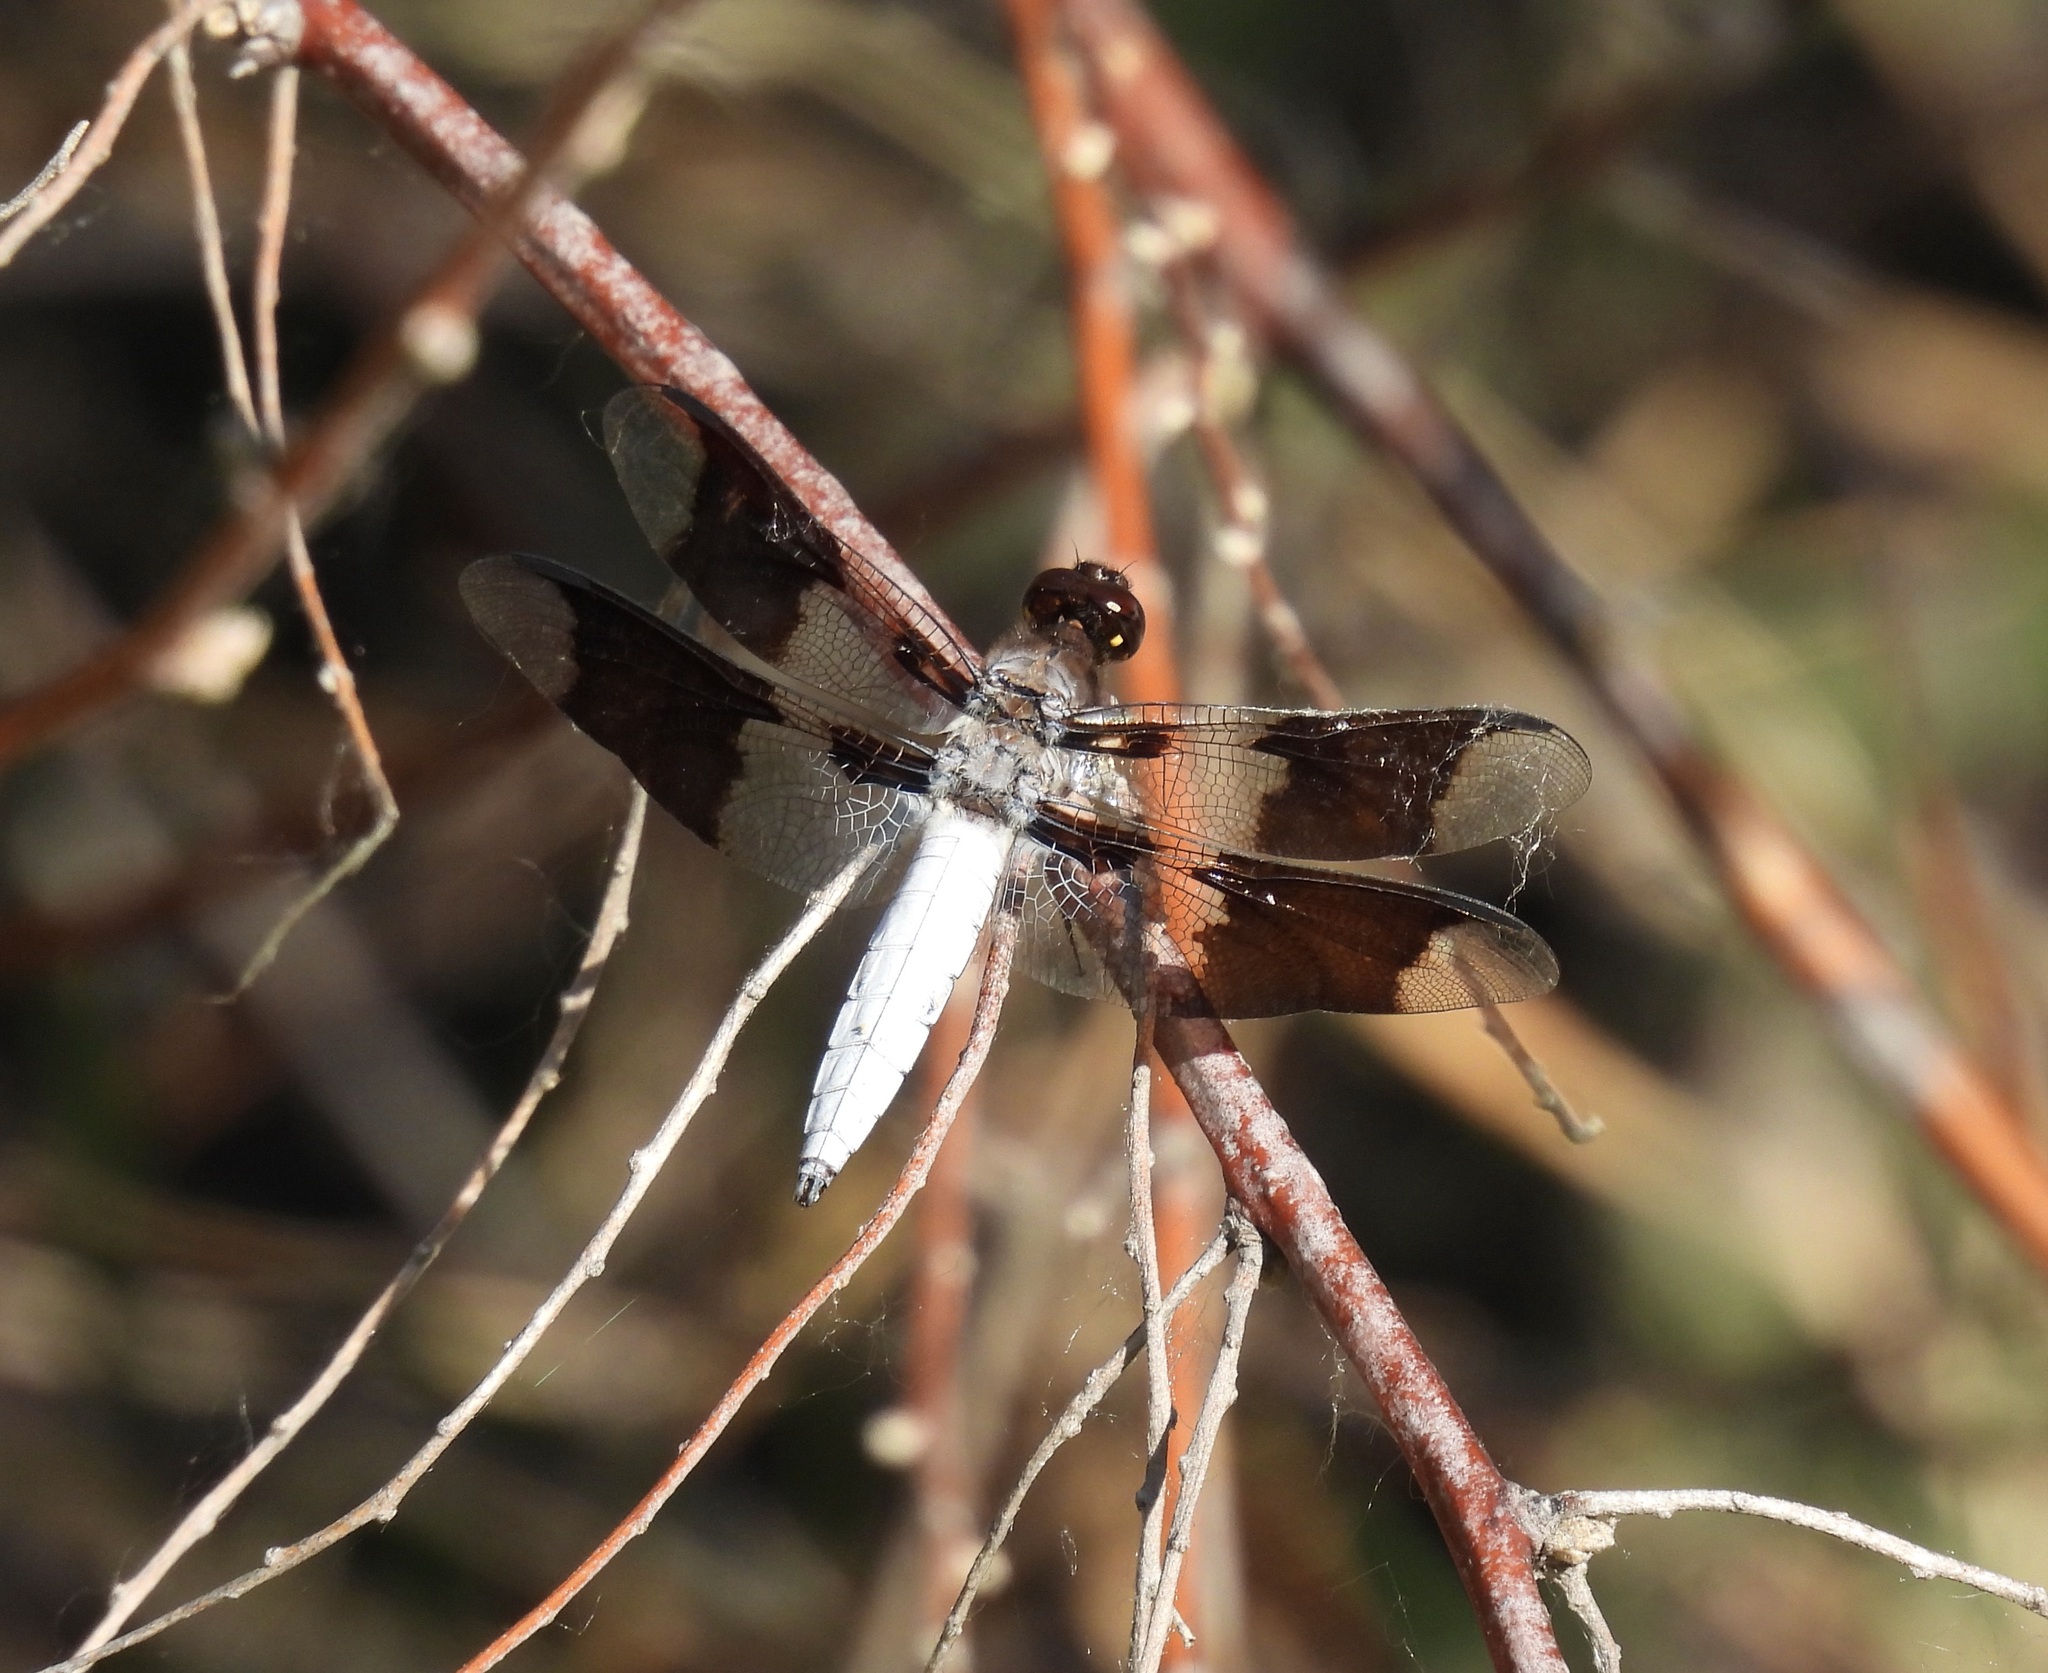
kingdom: Animalia
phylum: Arthropoda
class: Insecta
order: Odonata
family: Libellulidae
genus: Plathemis
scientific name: Plathemis lydia
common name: Common whitetail
